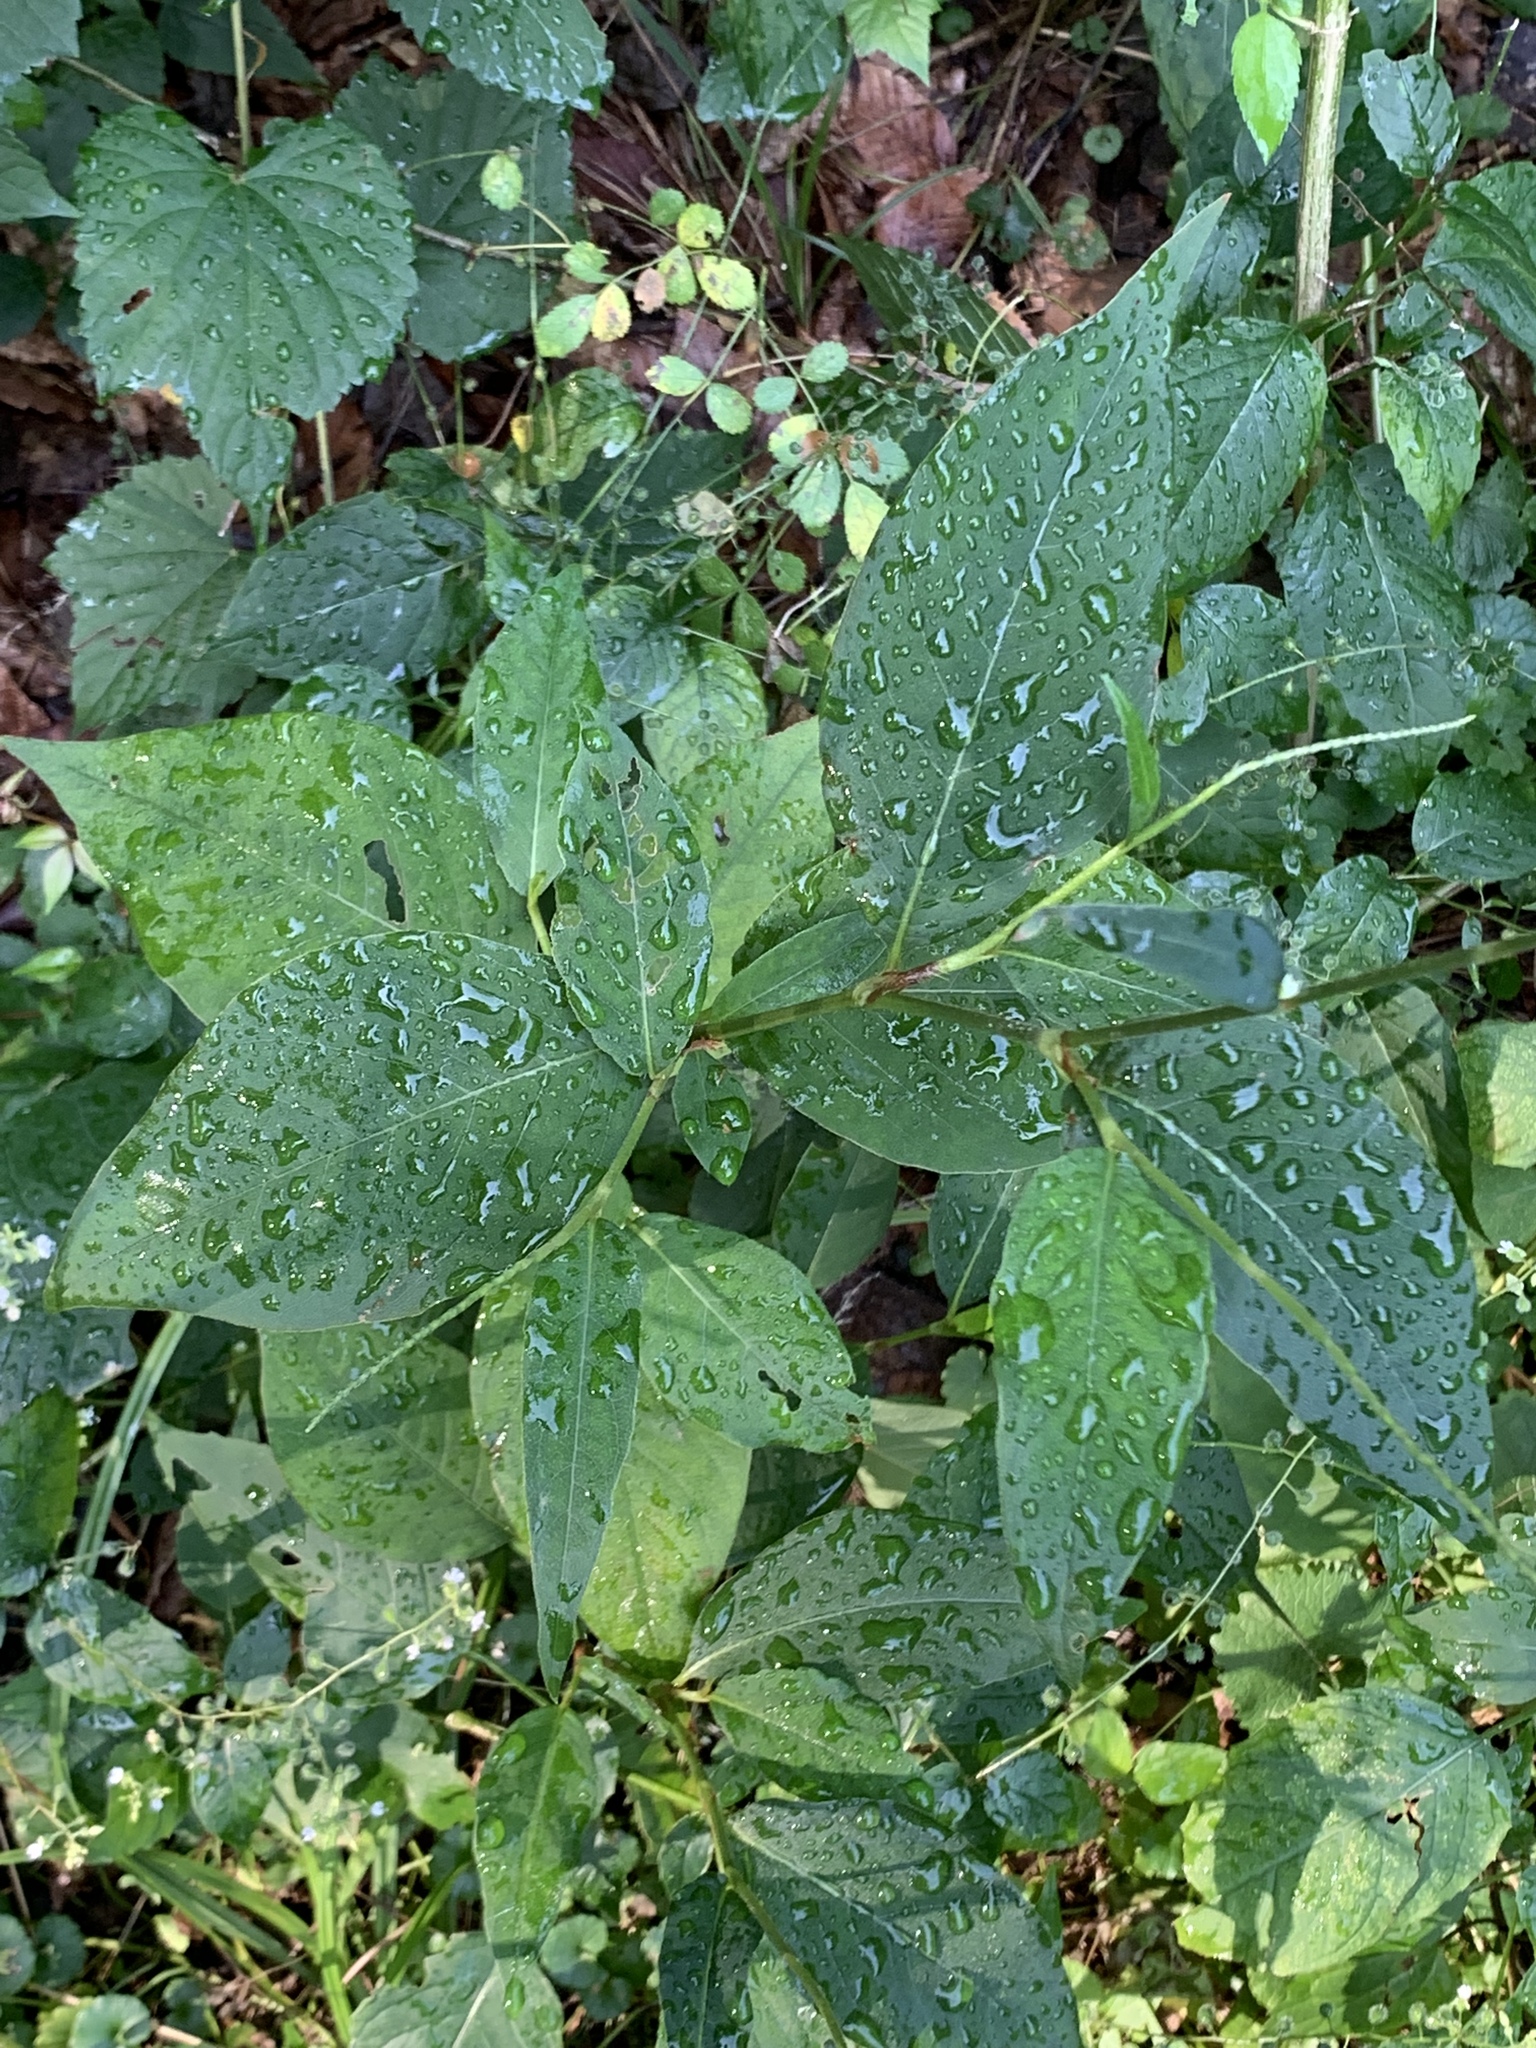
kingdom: Plantae
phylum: Tracheophyta
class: Magnoliopsida
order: Caryophyllales
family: Polygonaceae
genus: Persicaria
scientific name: Persicaria virginiana
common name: Jumpseed
